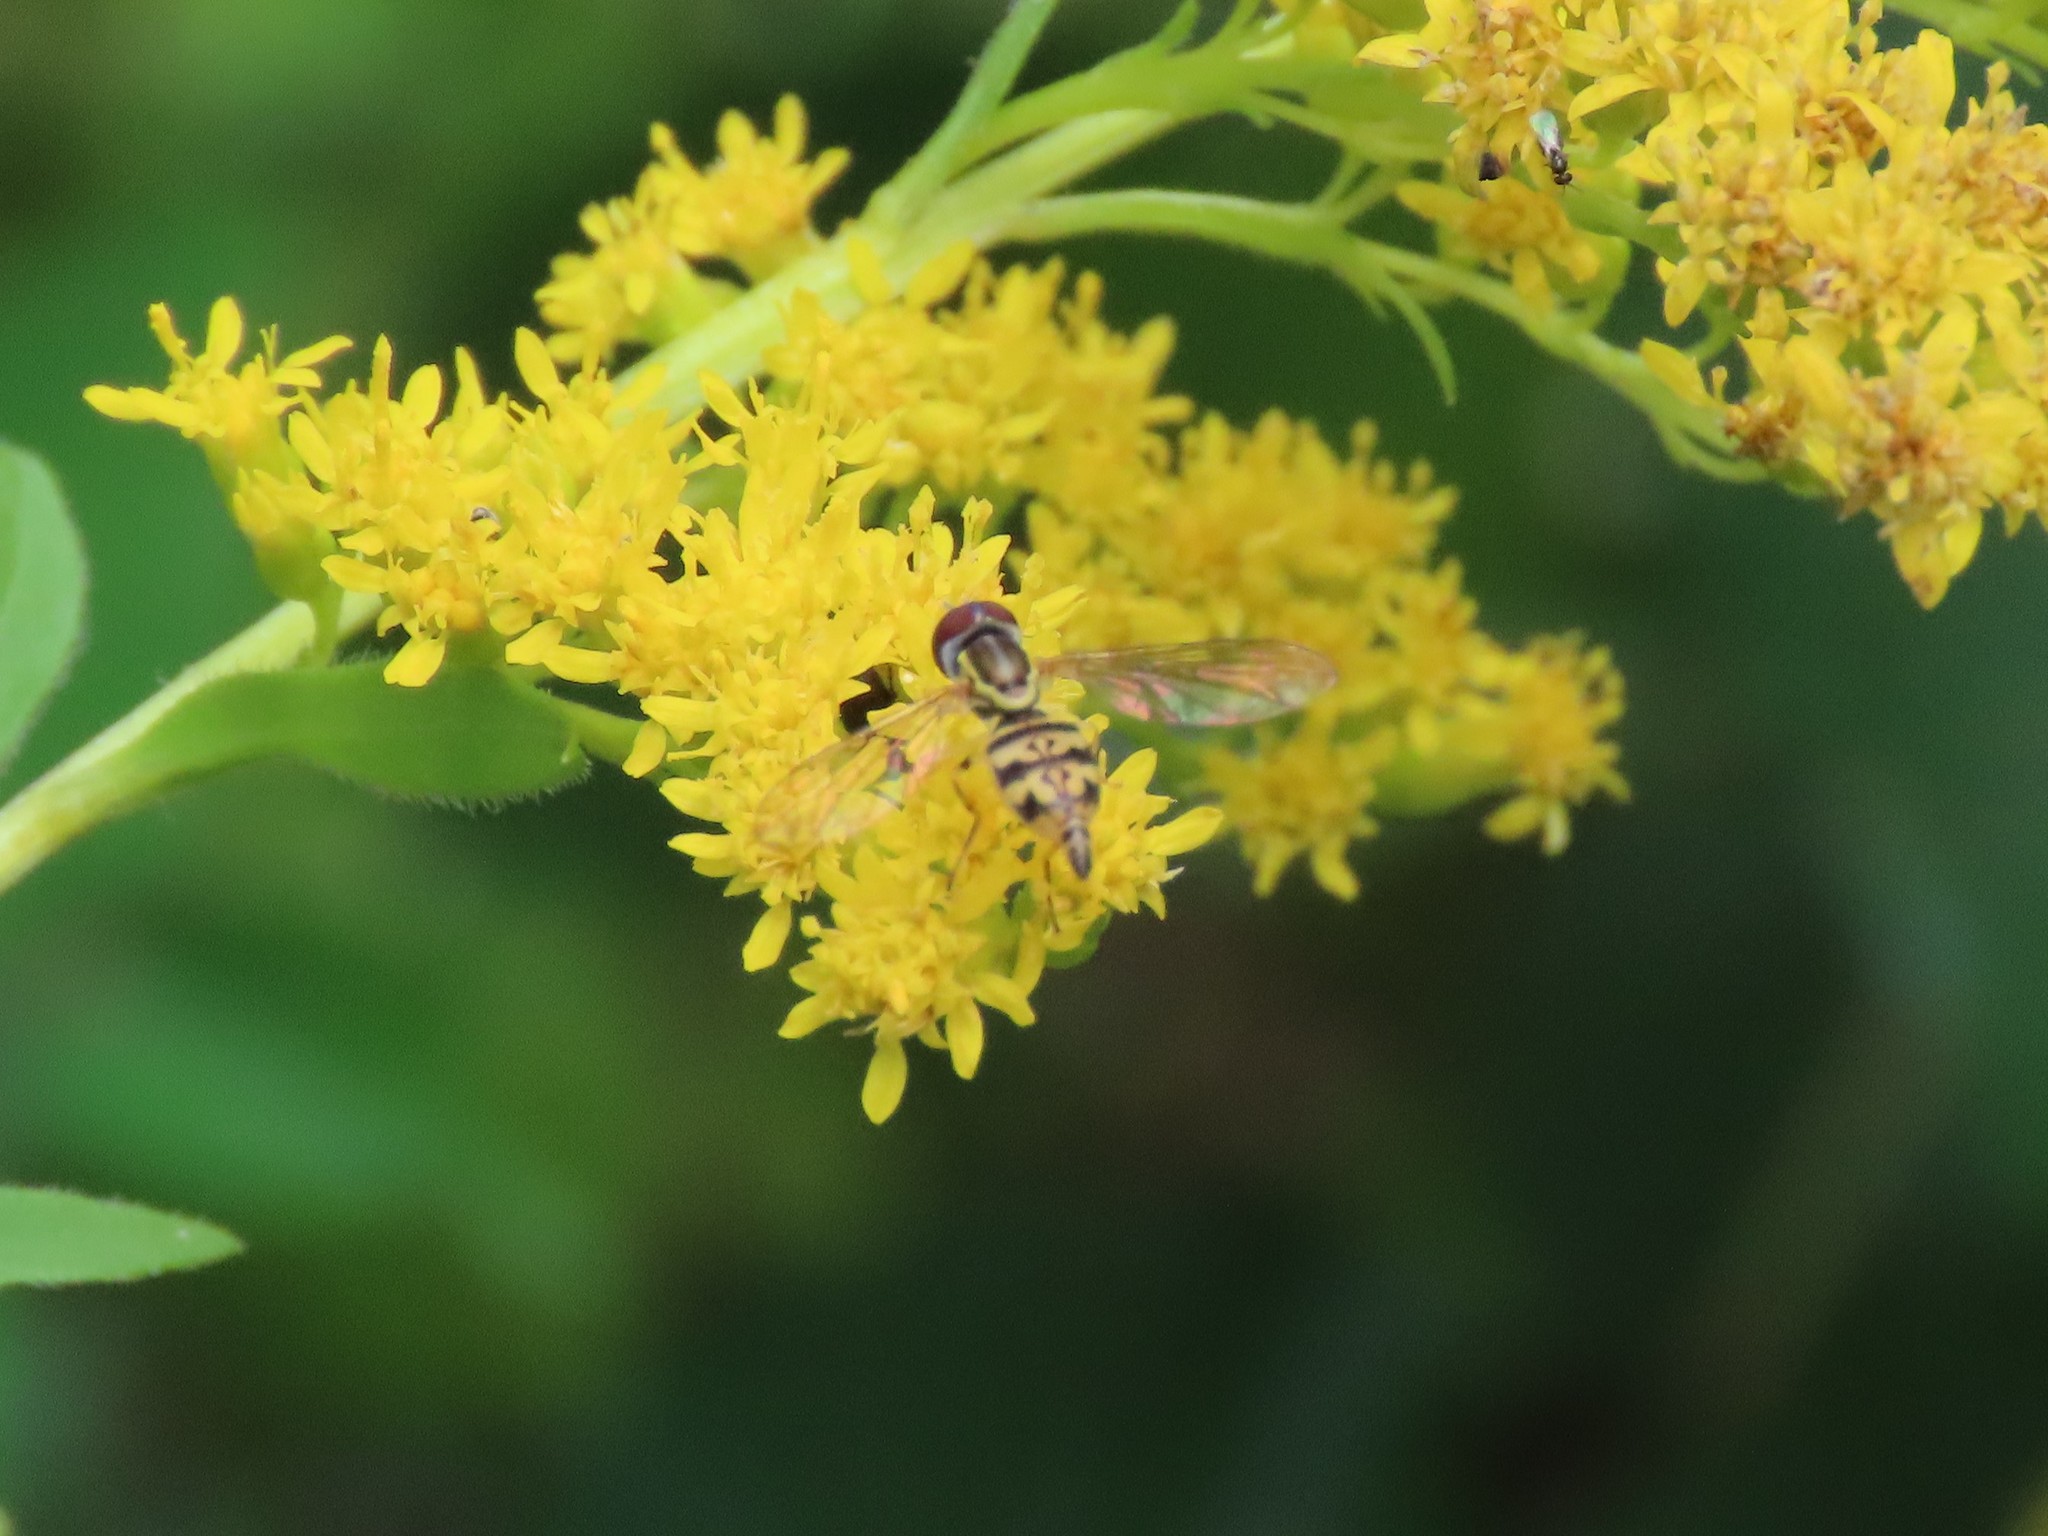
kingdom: Animalia
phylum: Arthropoda
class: Insecta
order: Diptera
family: Syrphidae
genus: Toxomerus
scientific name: Toxomerus geminatus
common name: Eastern calligrapher
